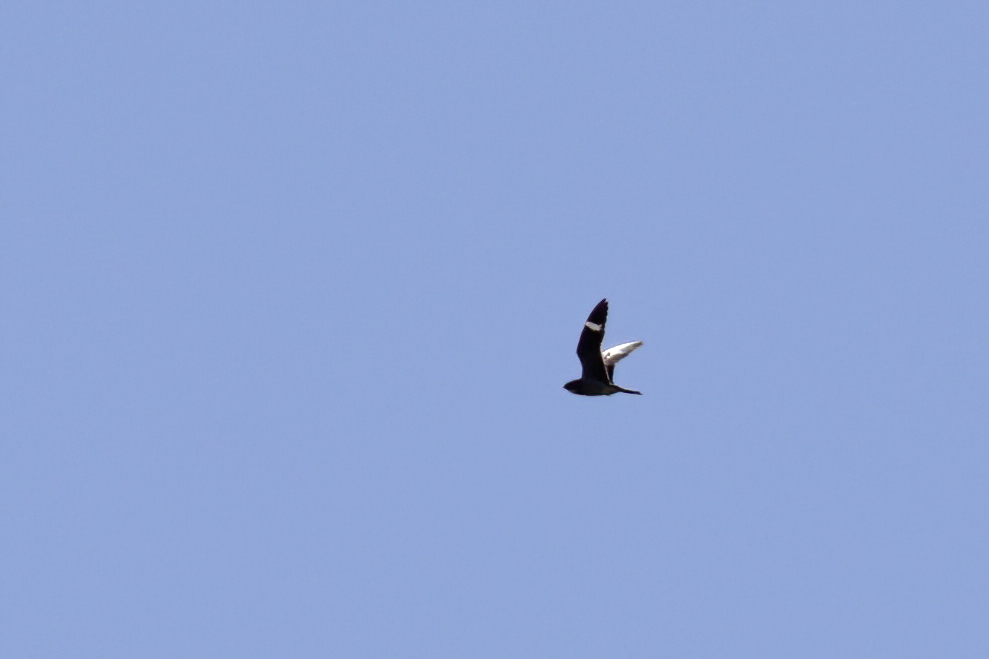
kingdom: Animalia
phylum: Chordata
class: Aves
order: Caprimulgiformes
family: Caprimulgidae
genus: Chordeiles
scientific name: Chordeiles minor
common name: Common nighthawk
